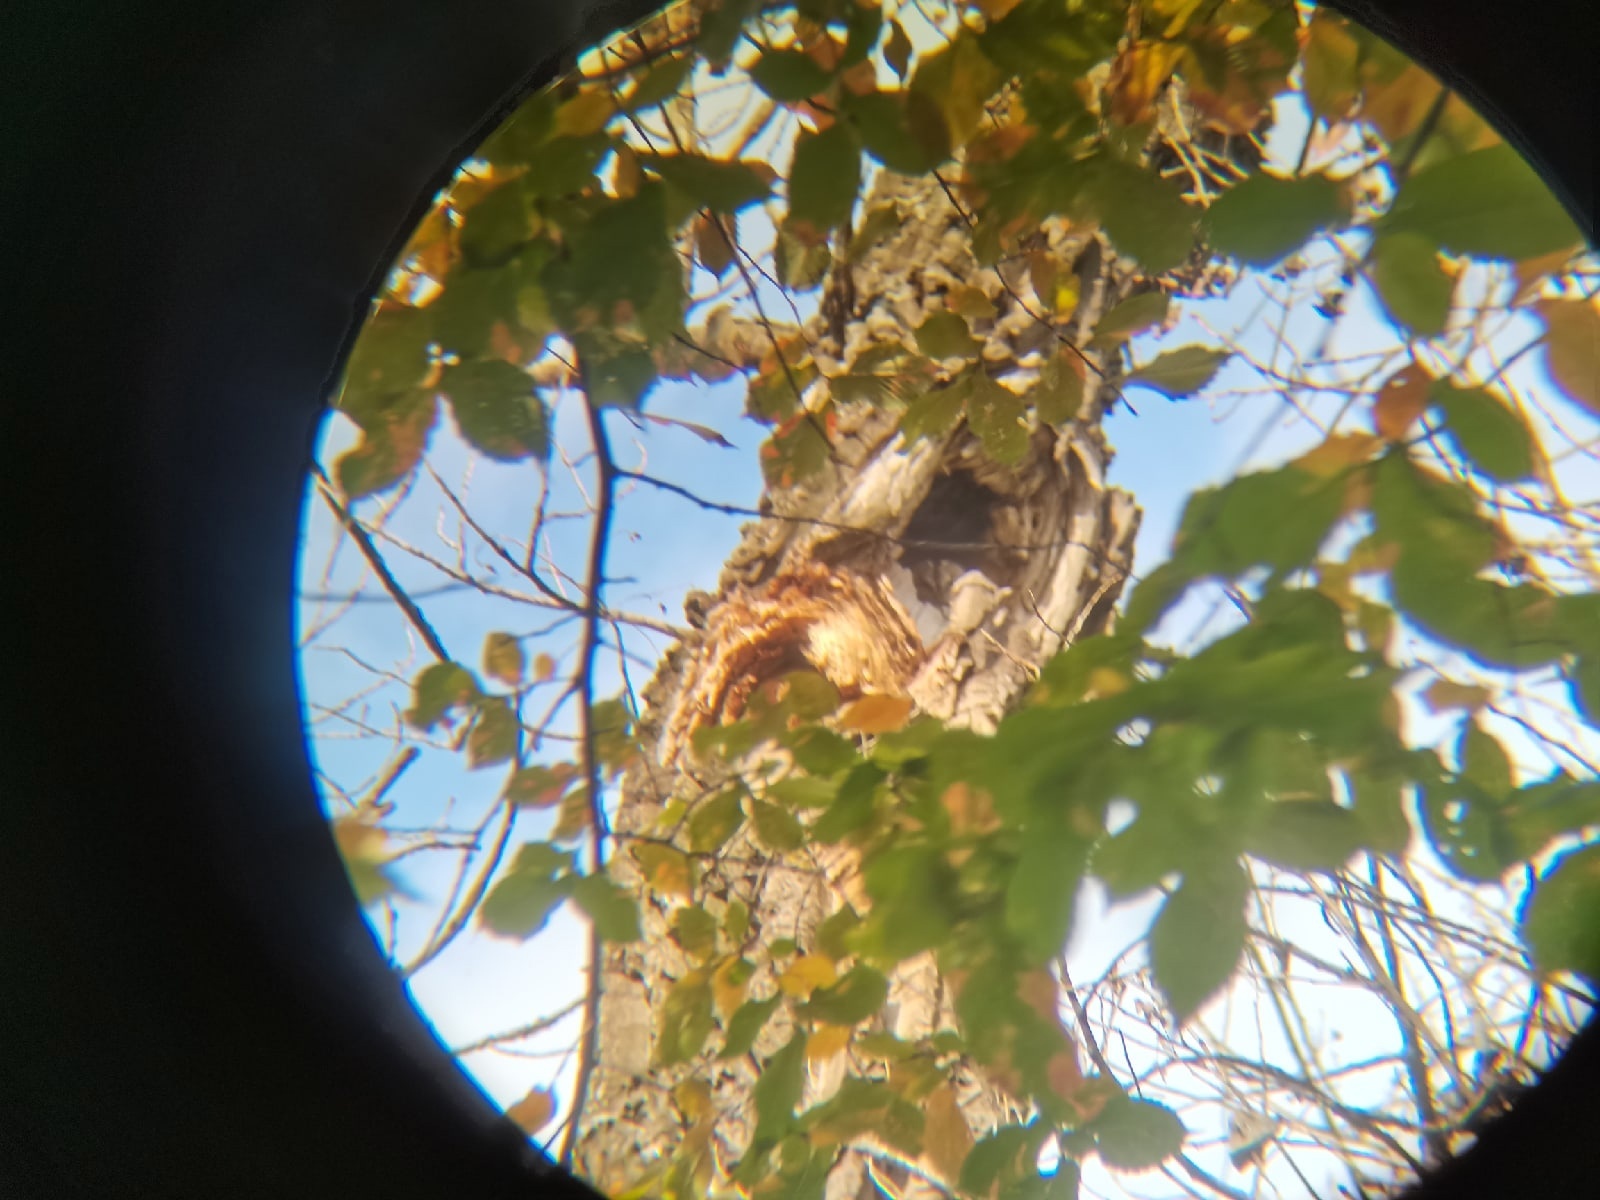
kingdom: Animalia
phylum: Chordata
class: Aves
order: Strigiformes
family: Strigidae
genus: Strix
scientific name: Strix aluco
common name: Tawny owl
